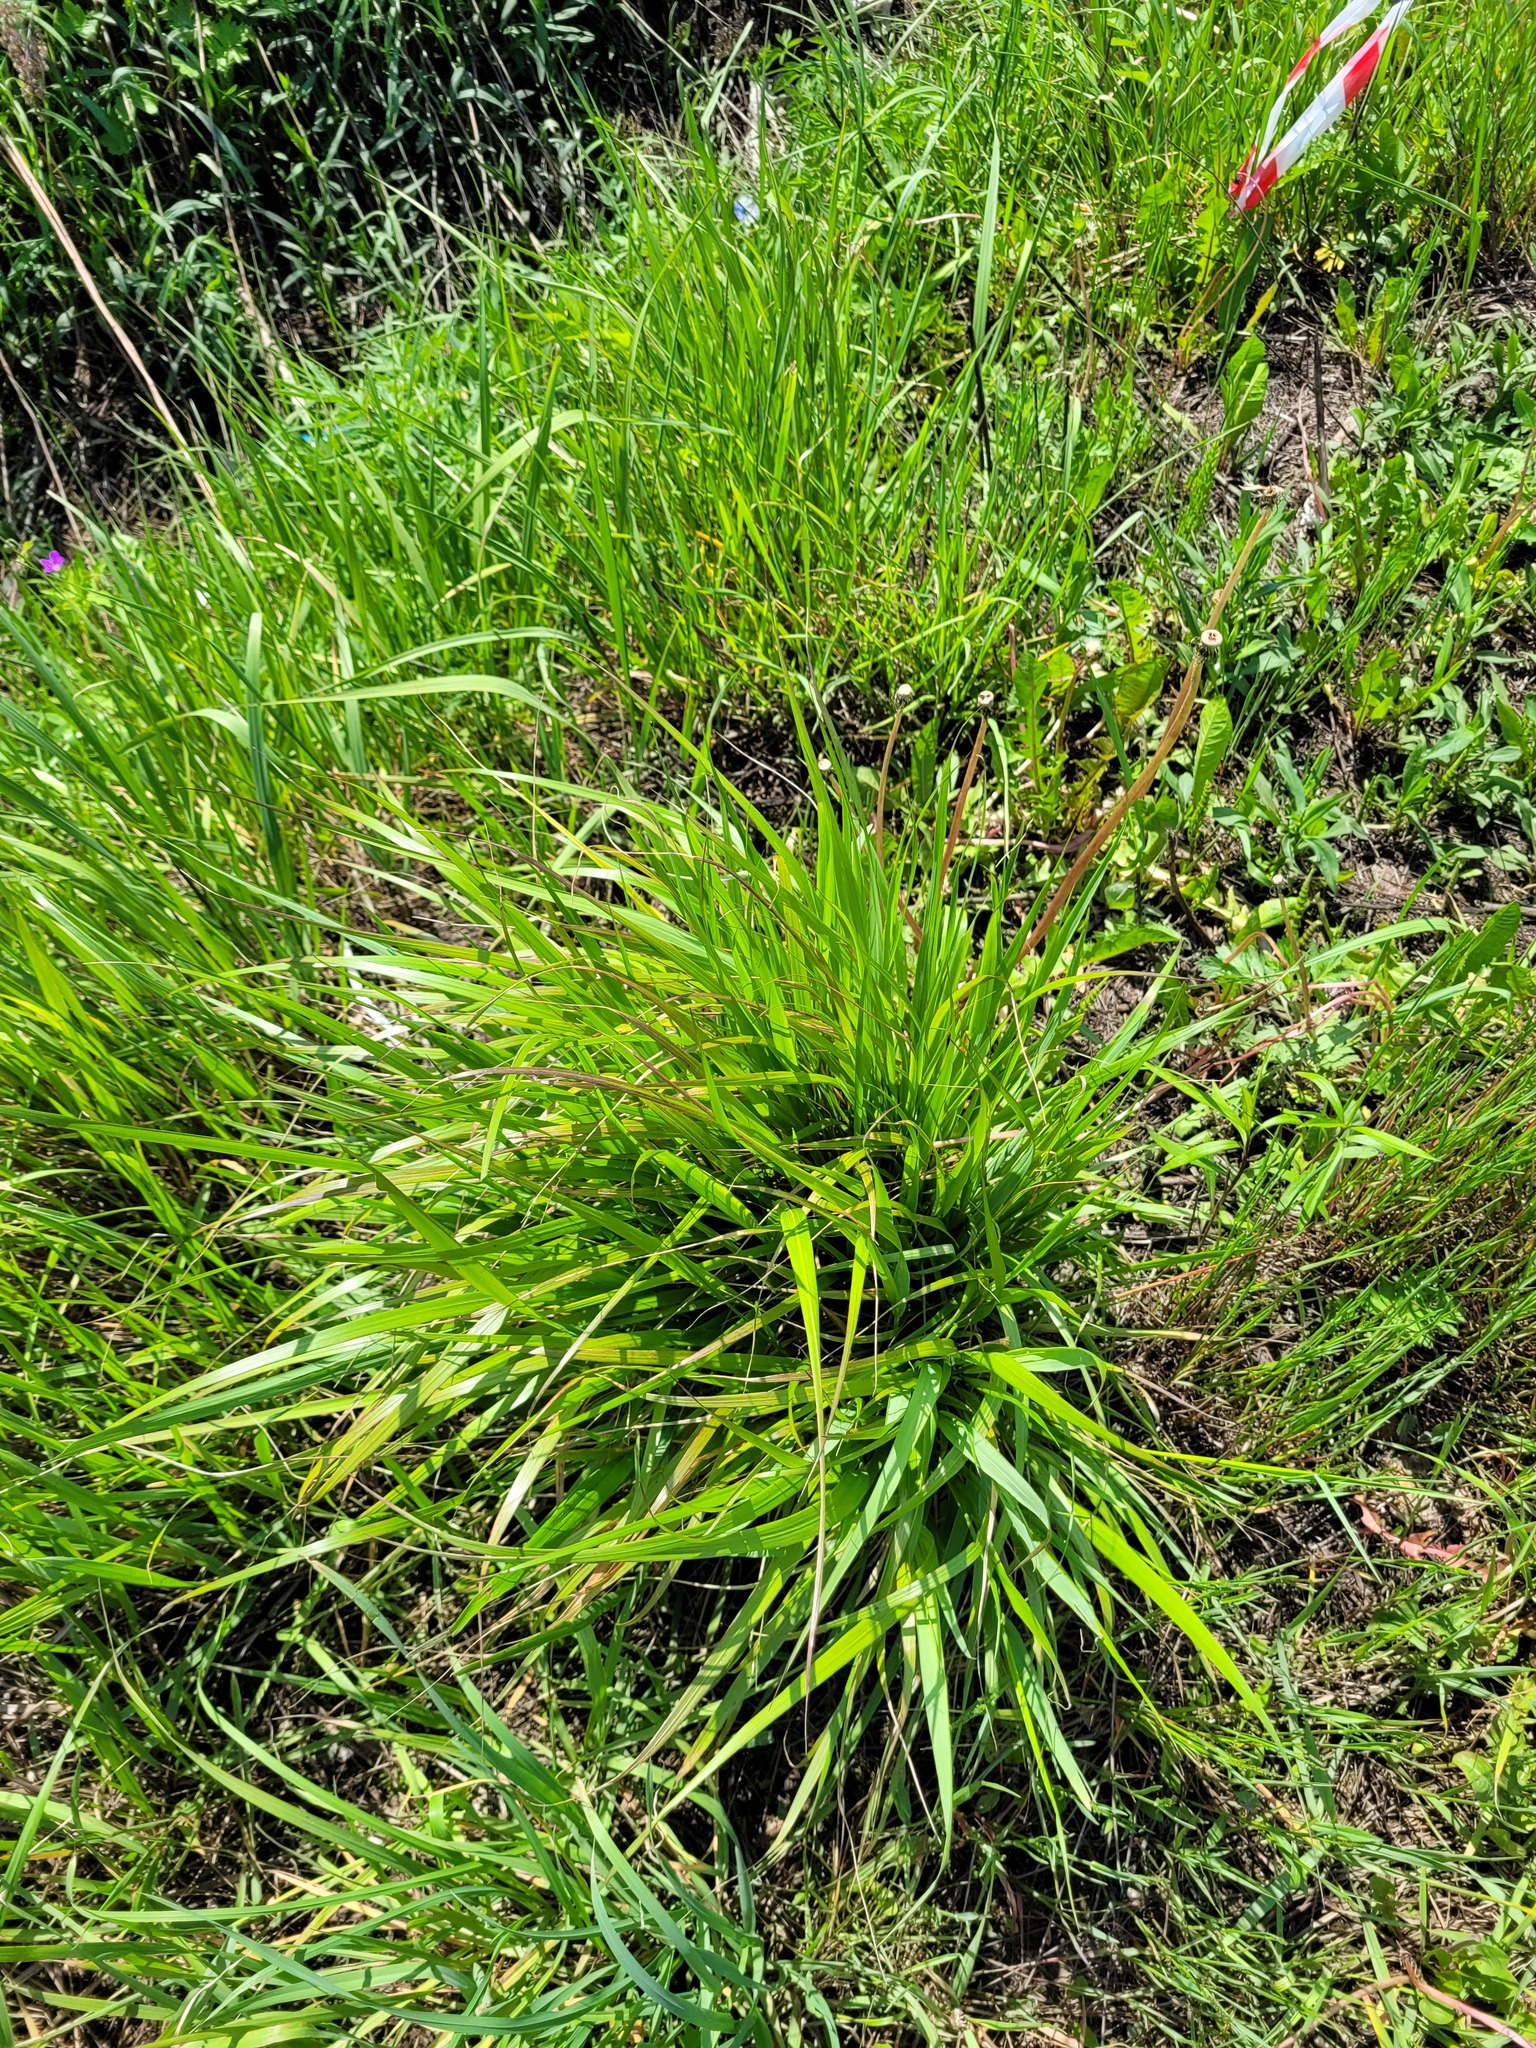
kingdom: Plantae
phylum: Tracheophyta
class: Liliopsida
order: Poales
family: Poaceae
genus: Calamagrostis
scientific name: Calamagrostis arundinacea
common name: Metskastik
